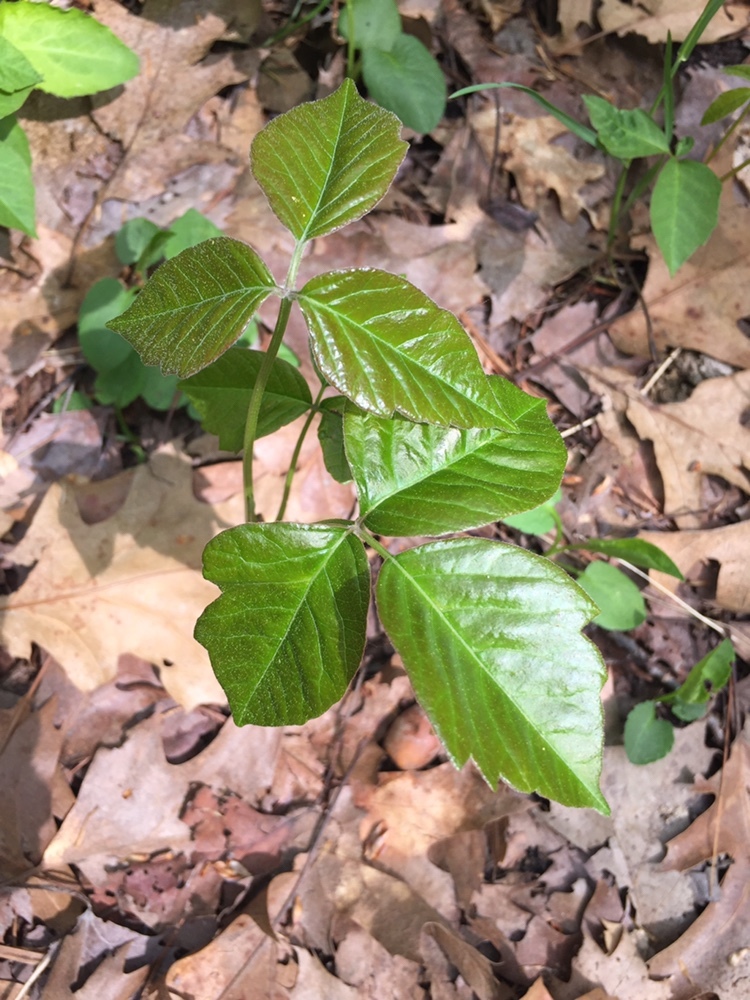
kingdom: Plantae
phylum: Tracheophyta
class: Magnoliopsida
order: Sapindales
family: Anacardiaceae
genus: Toxicodendron
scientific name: Toxicodendron radicans
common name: Poison ivy
